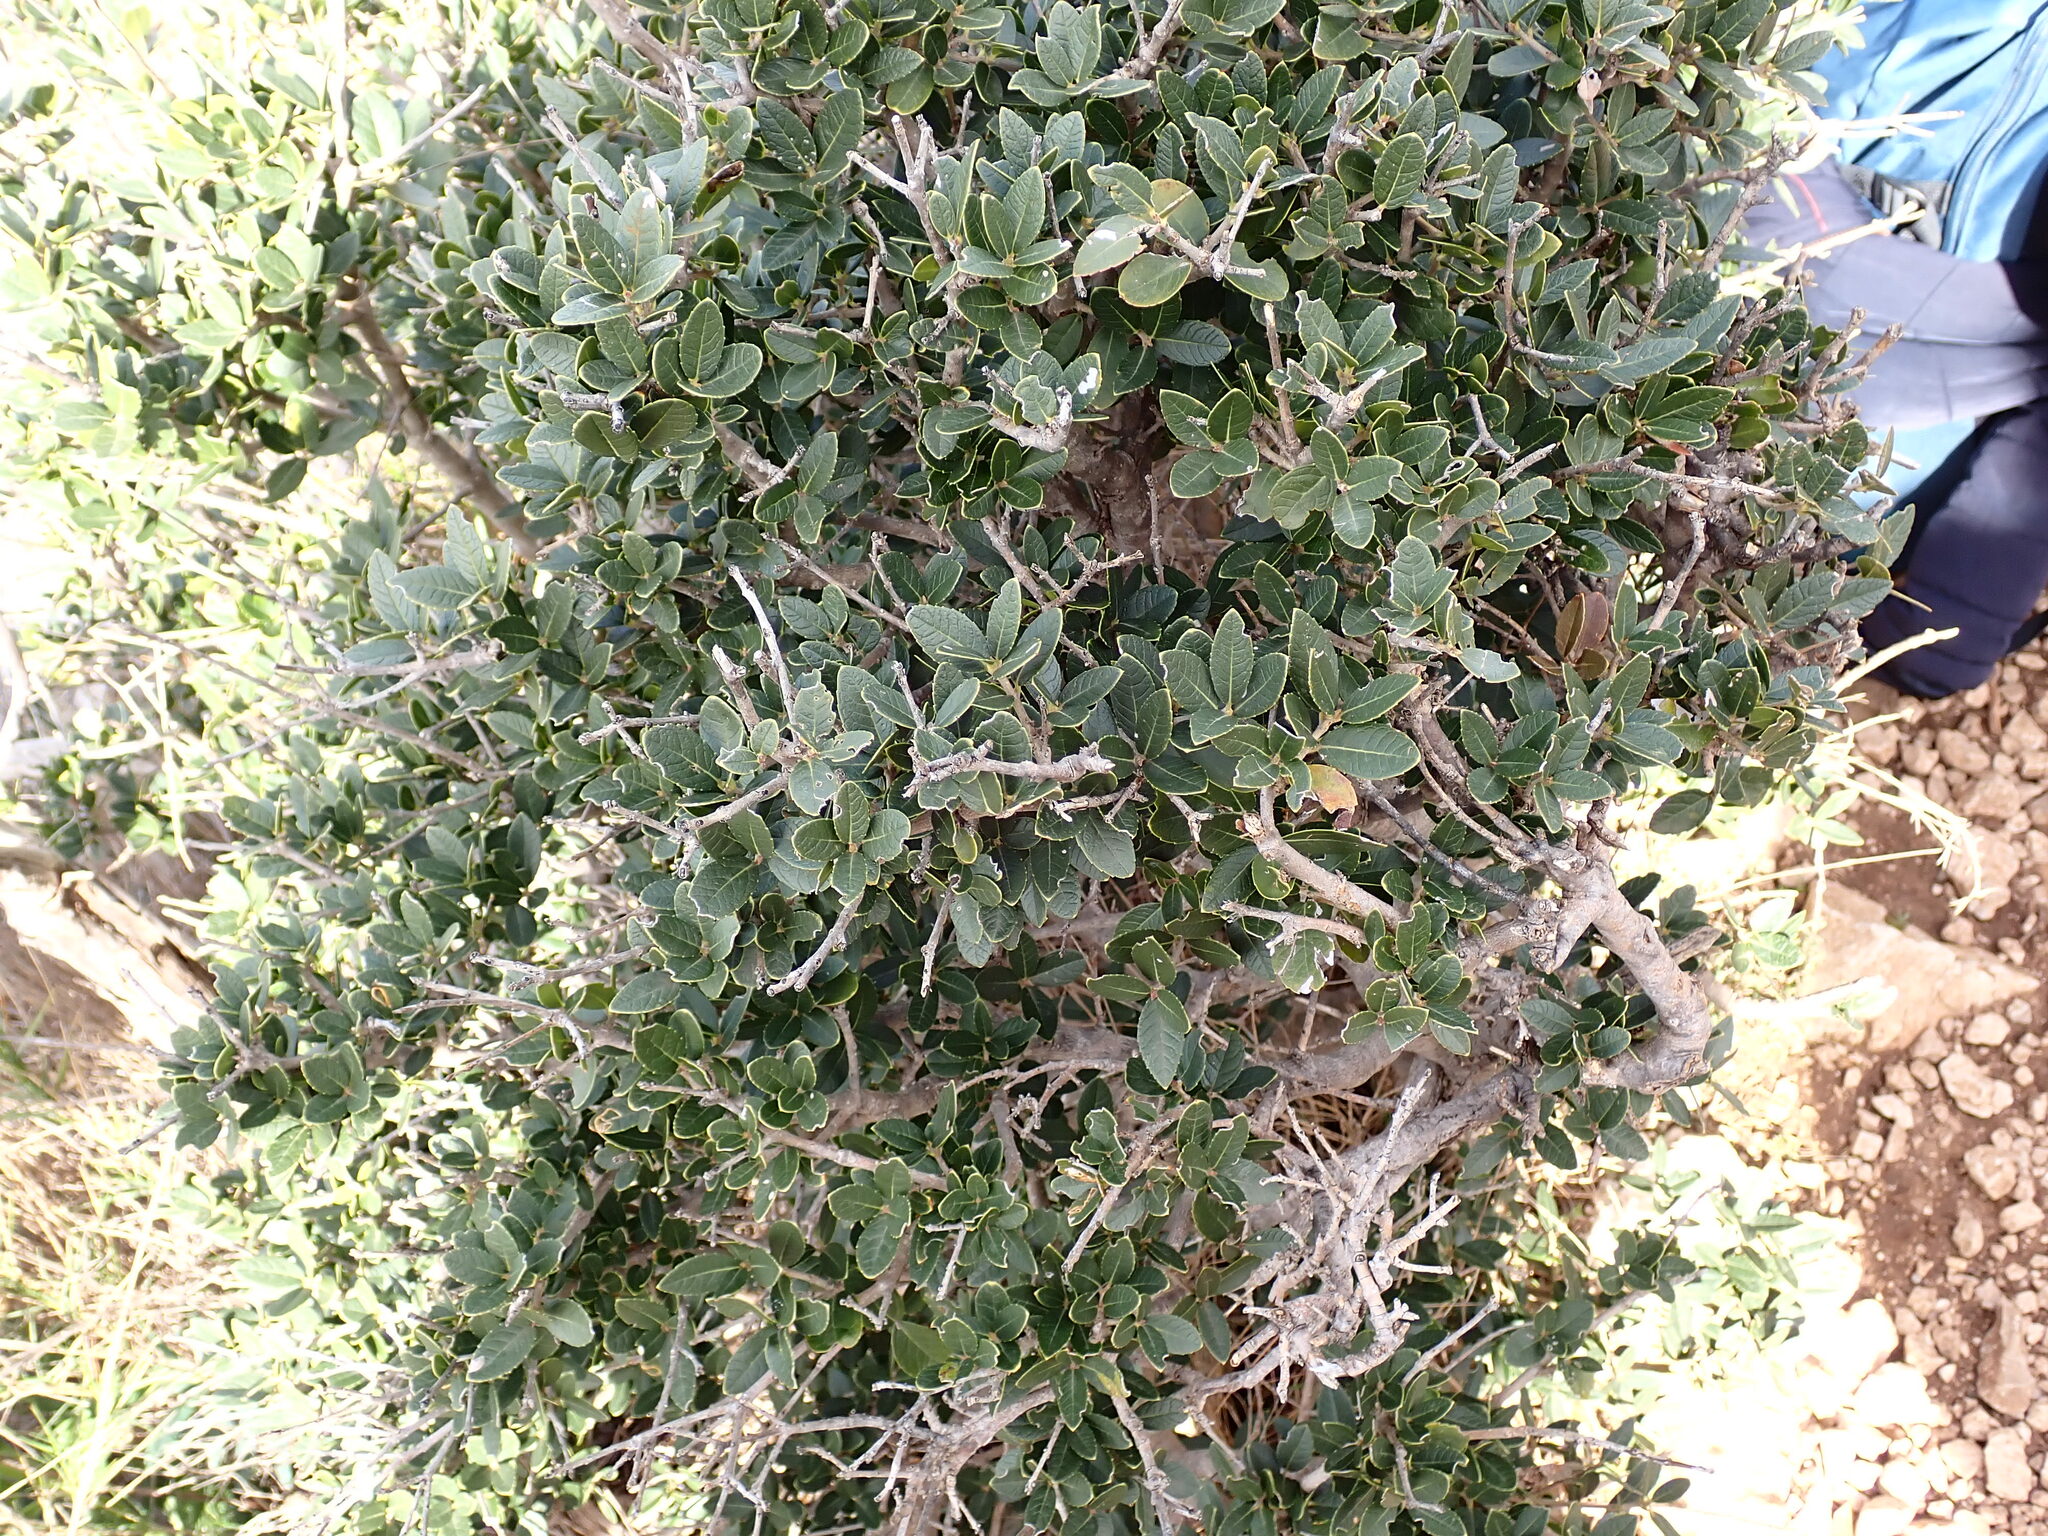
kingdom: Plantae
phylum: Tracheophyta
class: Magnoliopsida
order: Lamiales
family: Oleaceae
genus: Phillyrea
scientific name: Phillyrea latifolia
